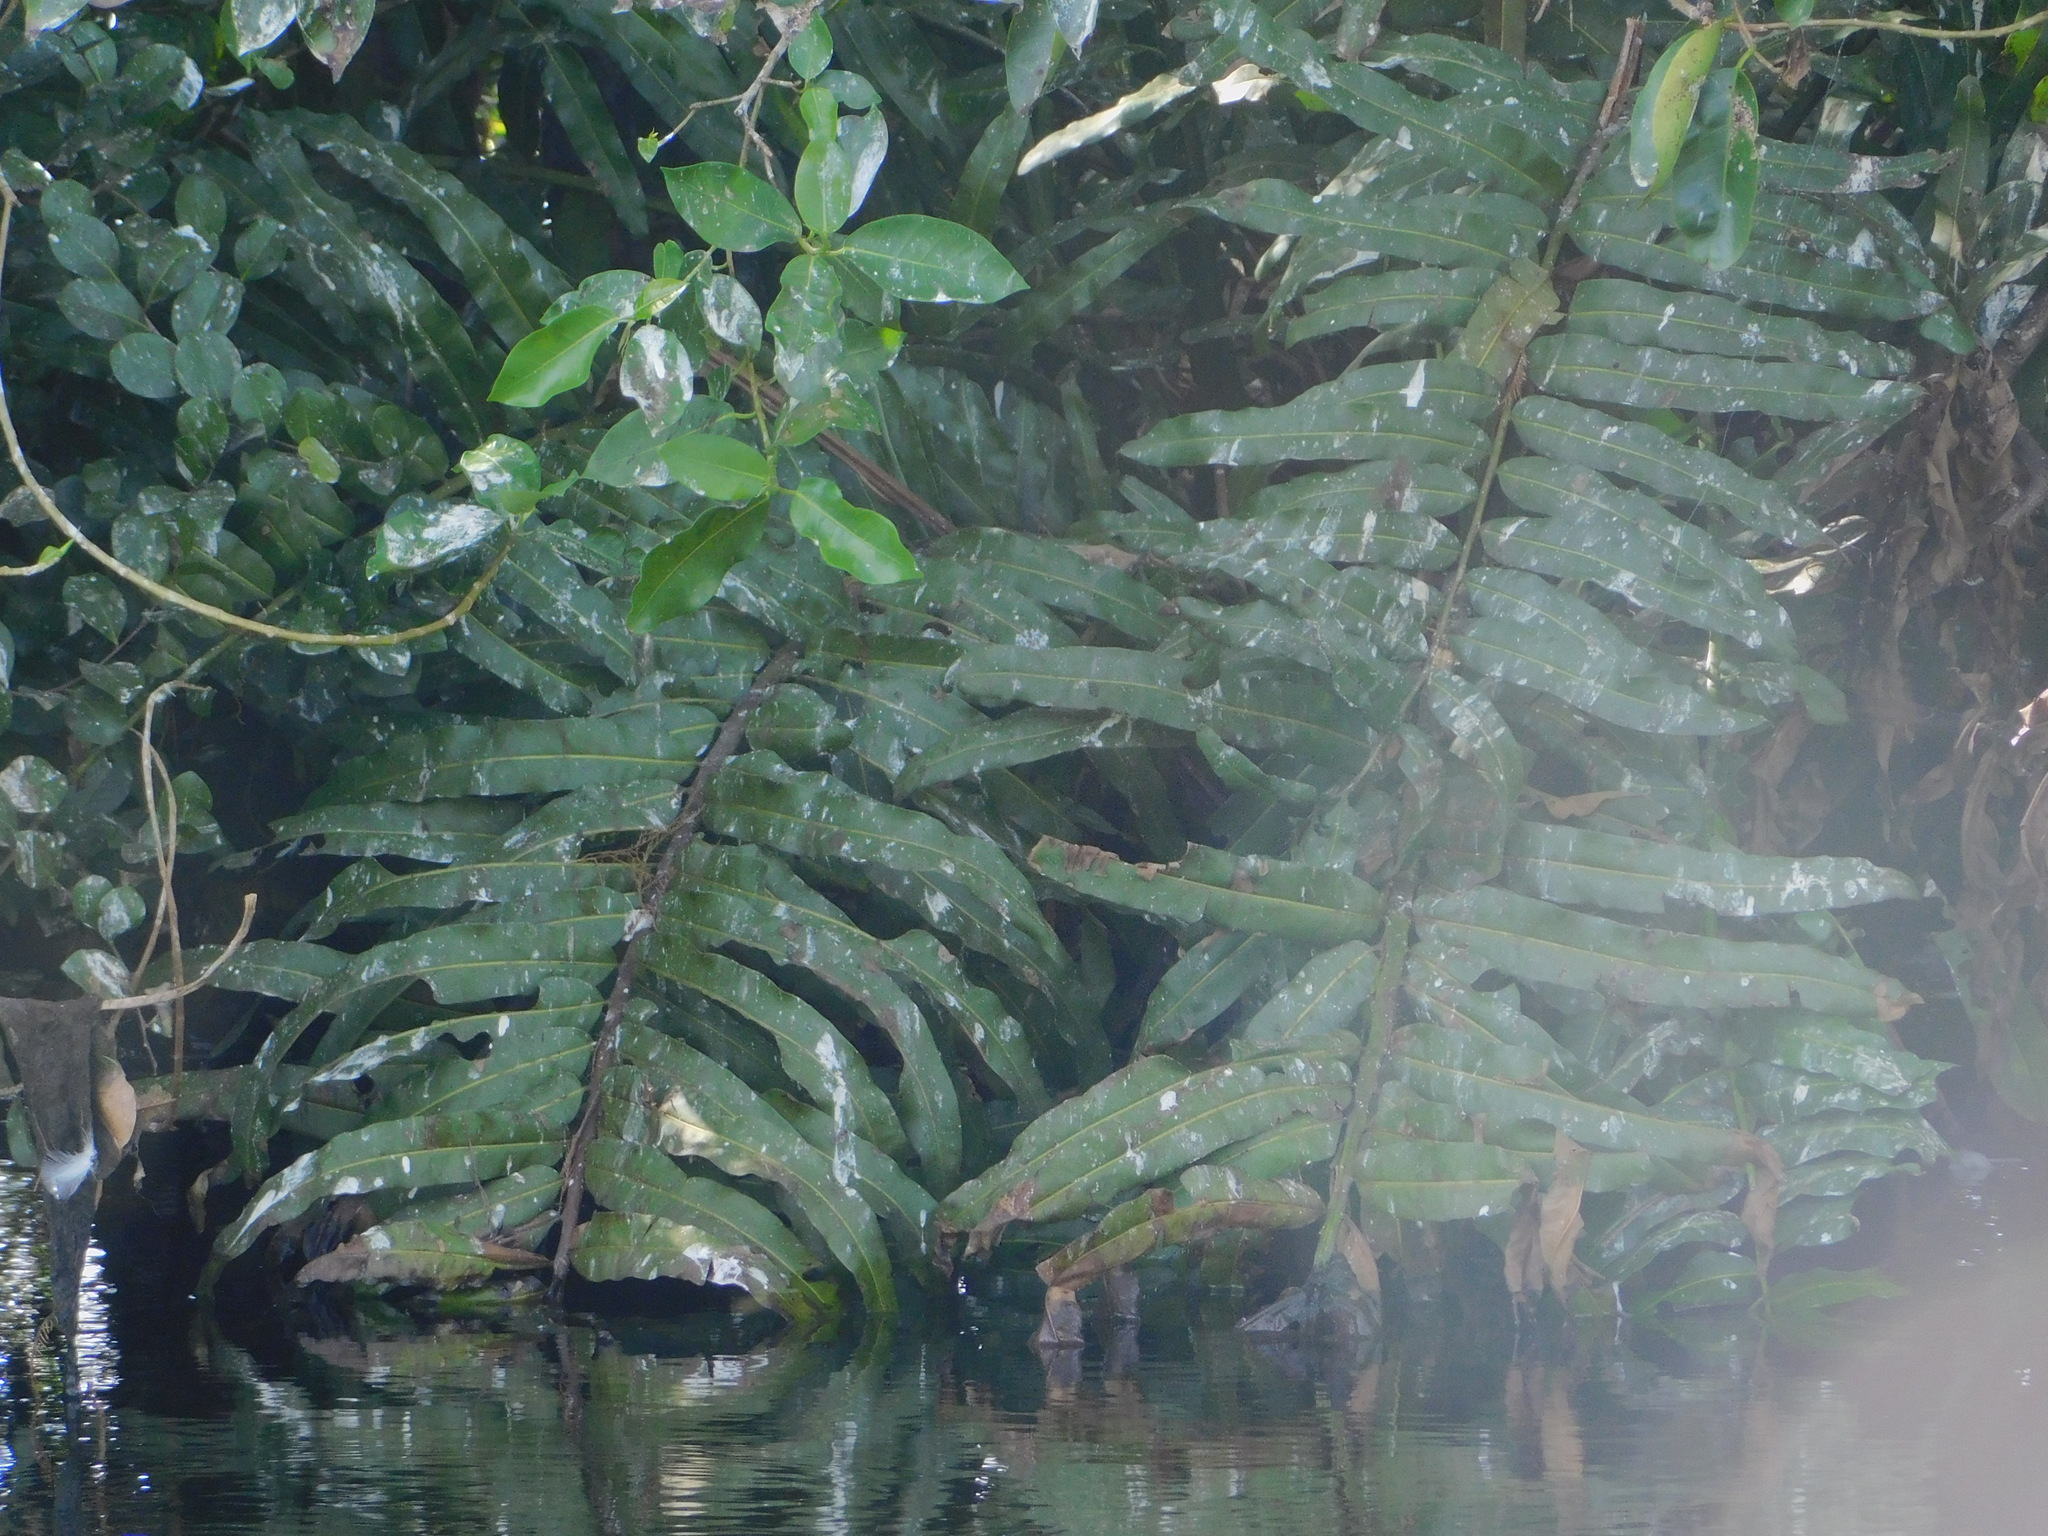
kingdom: Plantae
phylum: Tracheophyta
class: Polypodiopsida
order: Polypodiales
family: Pteridaceae
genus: Acrostichum
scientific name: Acrostichum danaeifolium
